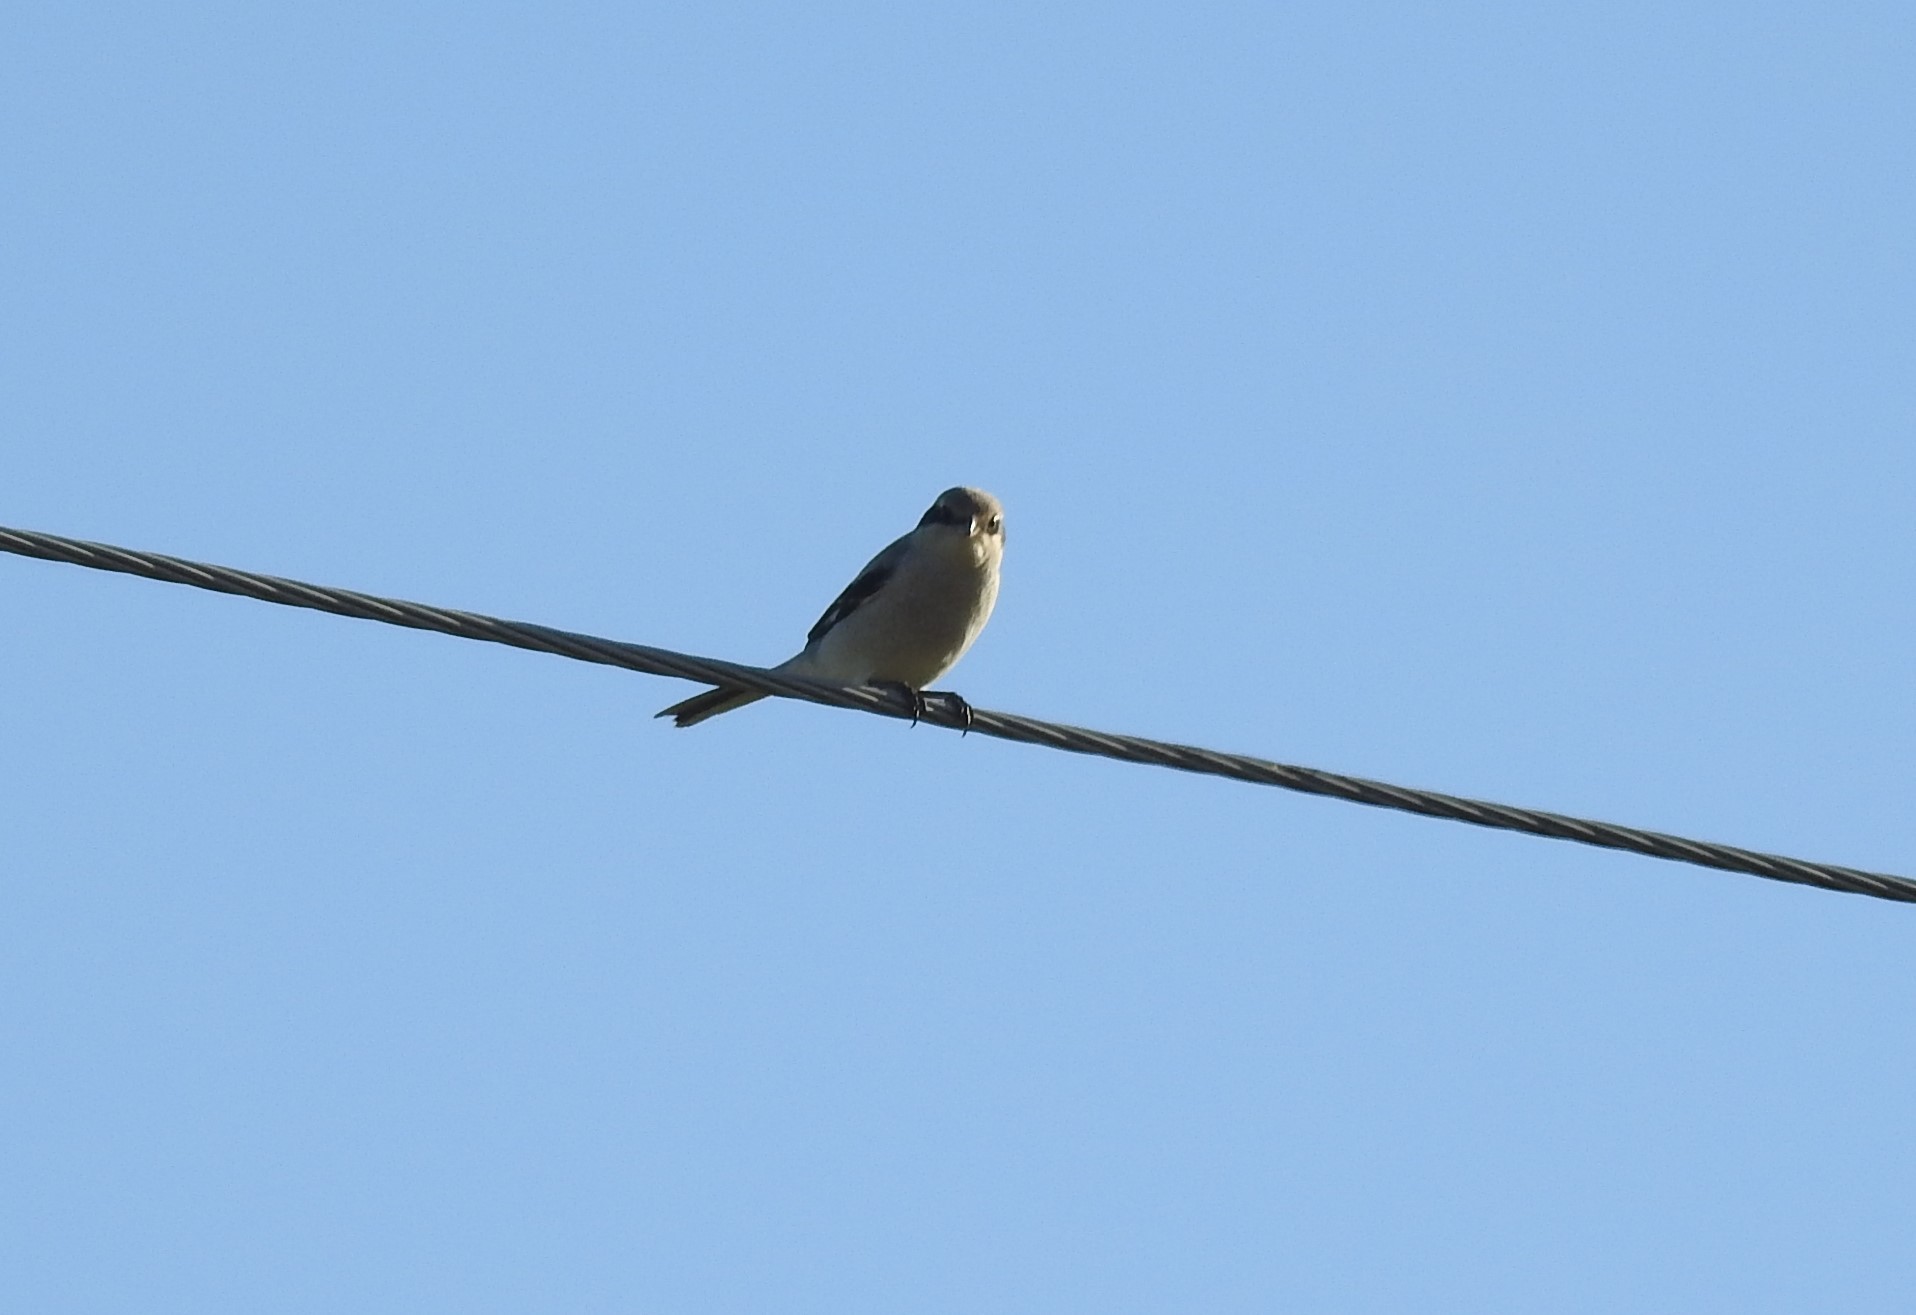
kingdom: Animalia
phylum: Chordata
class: Aves
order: Passeriformes
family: Laniidae
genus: Lanius
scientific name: Lanius excubitor
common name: Great grey shrike
